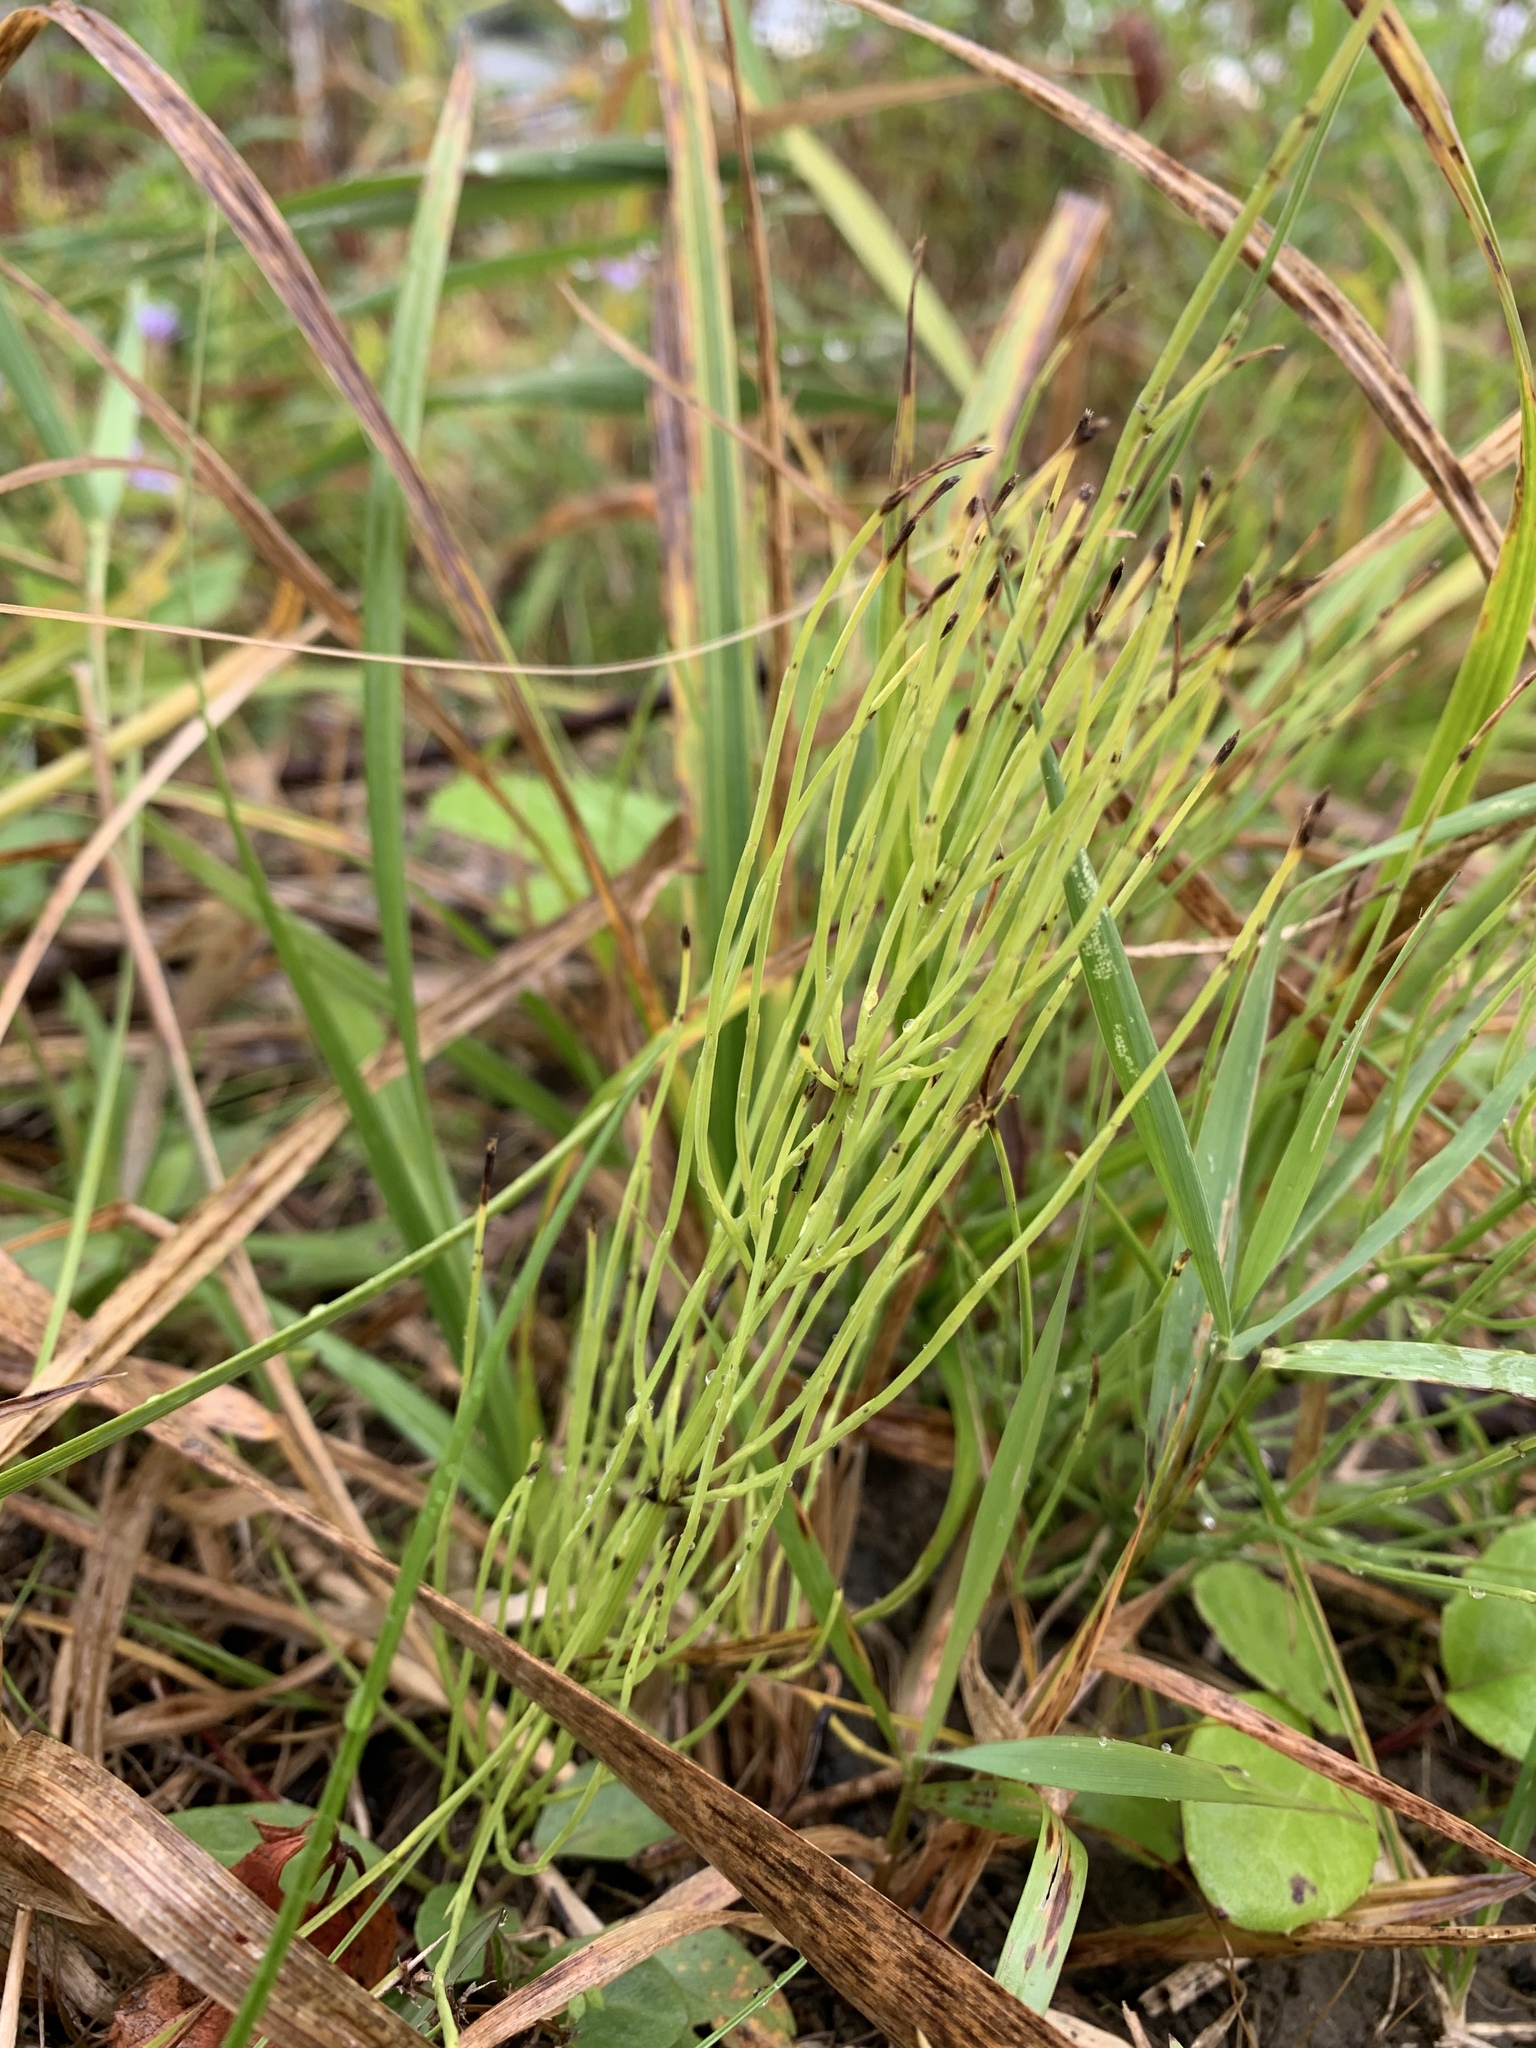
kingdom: Plantae
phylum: Tracheophyta
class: Polypodiopsida
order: Equisetales
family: Equisetaceae
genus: Equisetum
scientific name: Equisetum arvense
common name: Field horsetail
